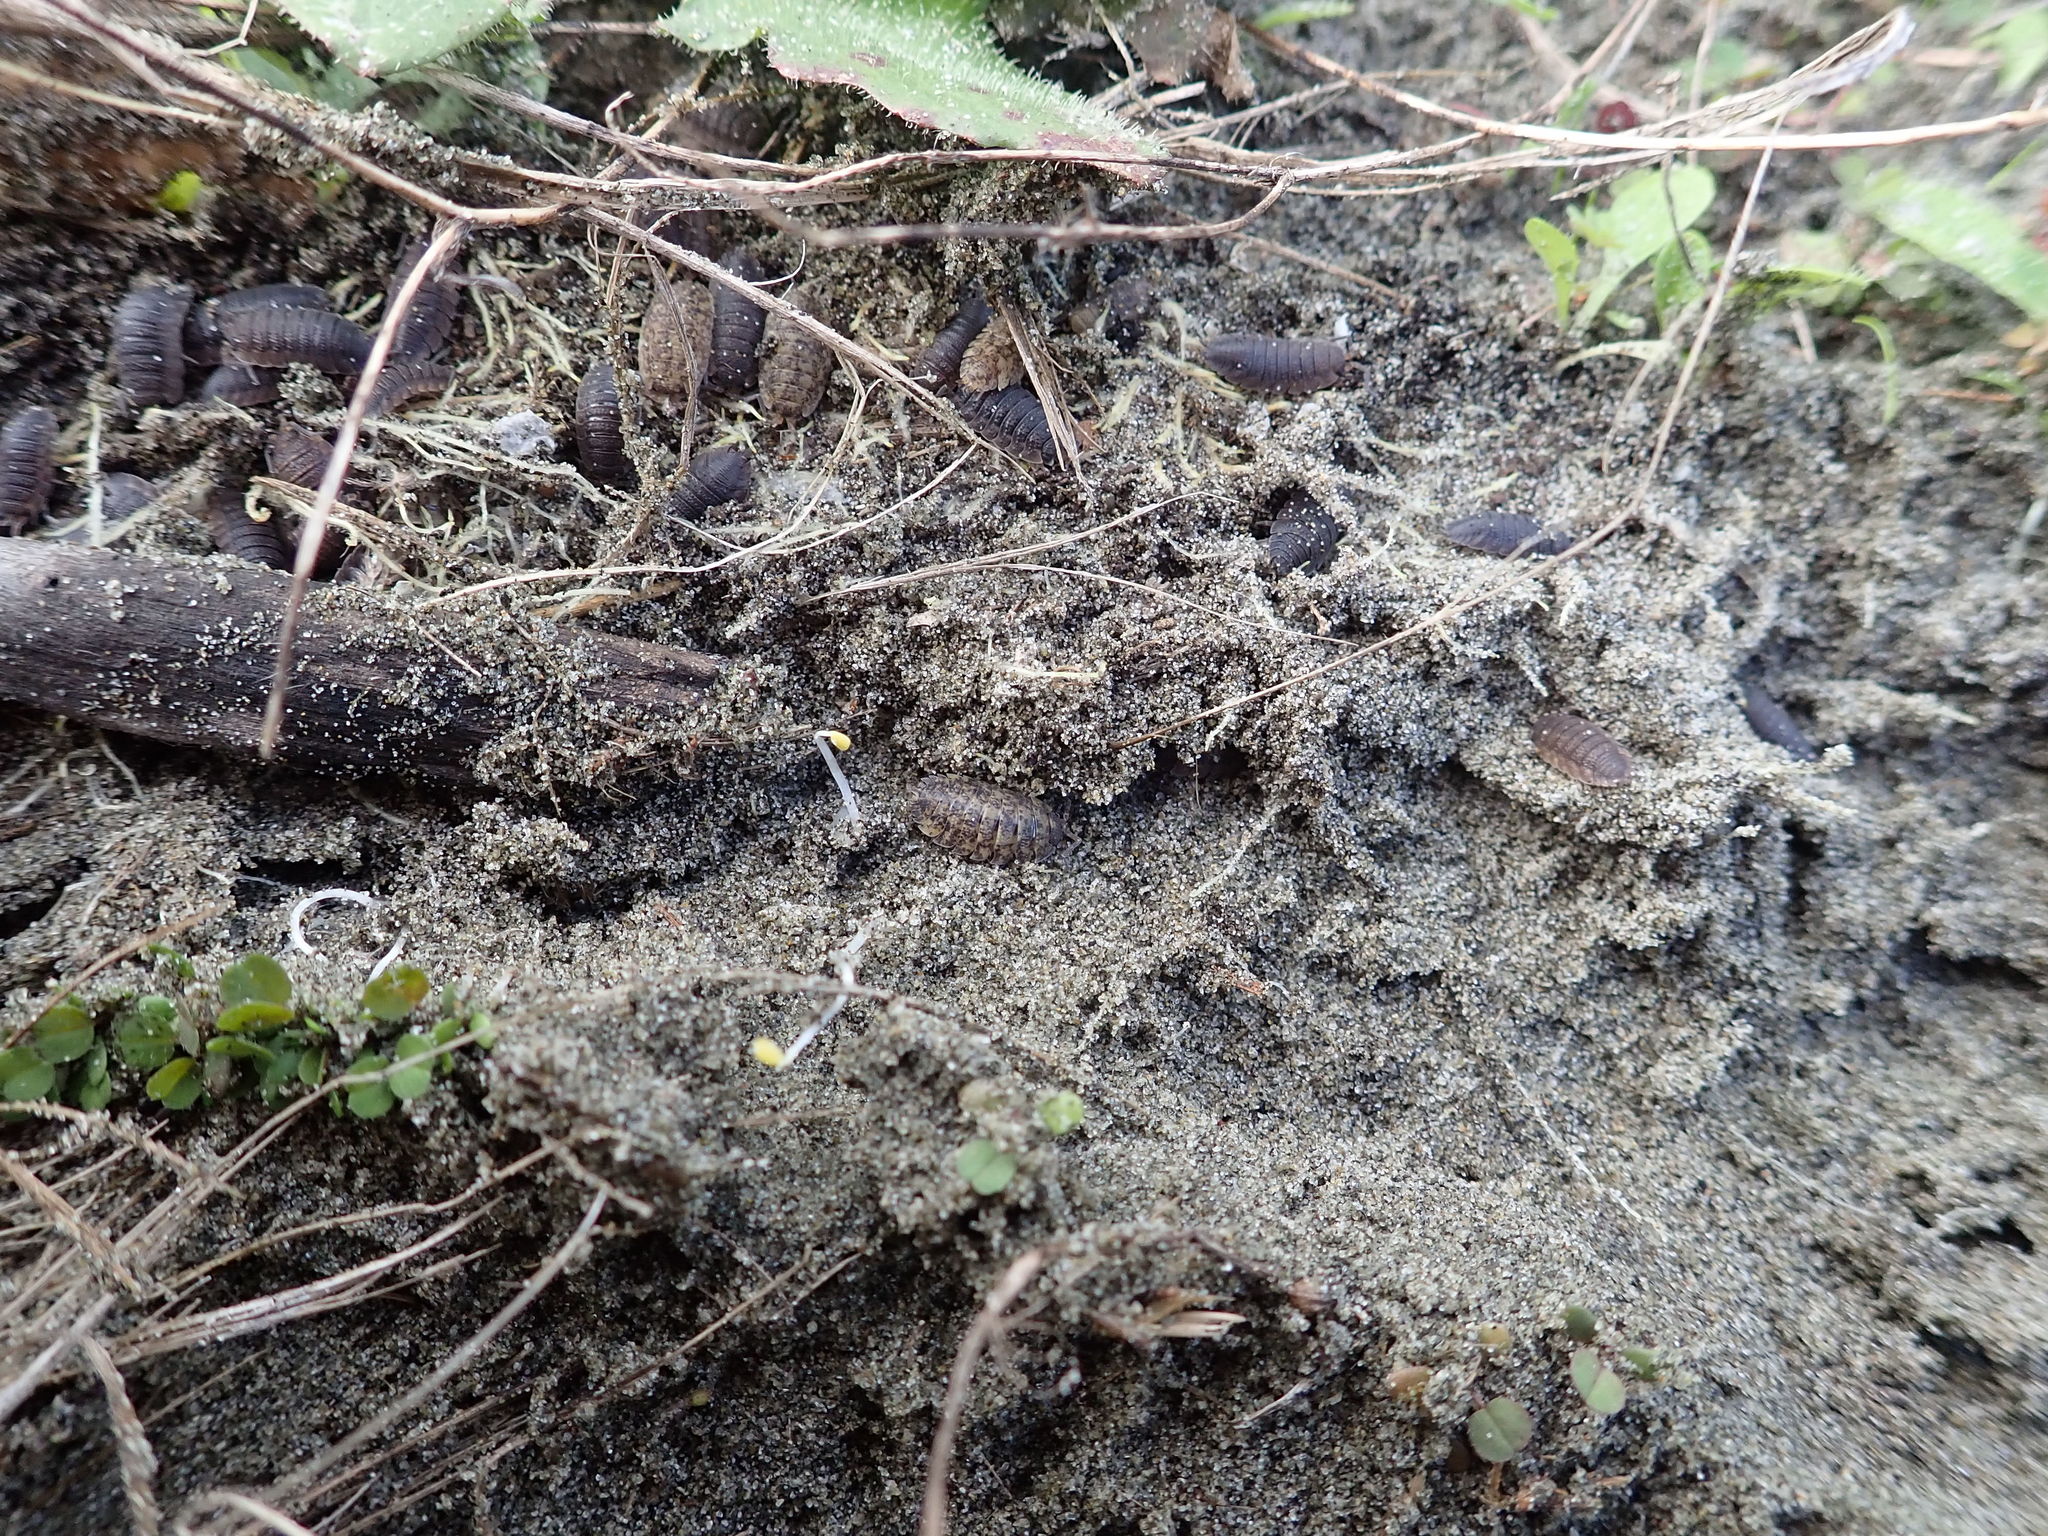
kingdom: Animalia
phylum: Arthropoda
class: Malacostraca
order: Isopoda
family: Porcellionidae
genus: Porcellio
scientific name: Porcellio scaber
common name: Common rough woodlouse
